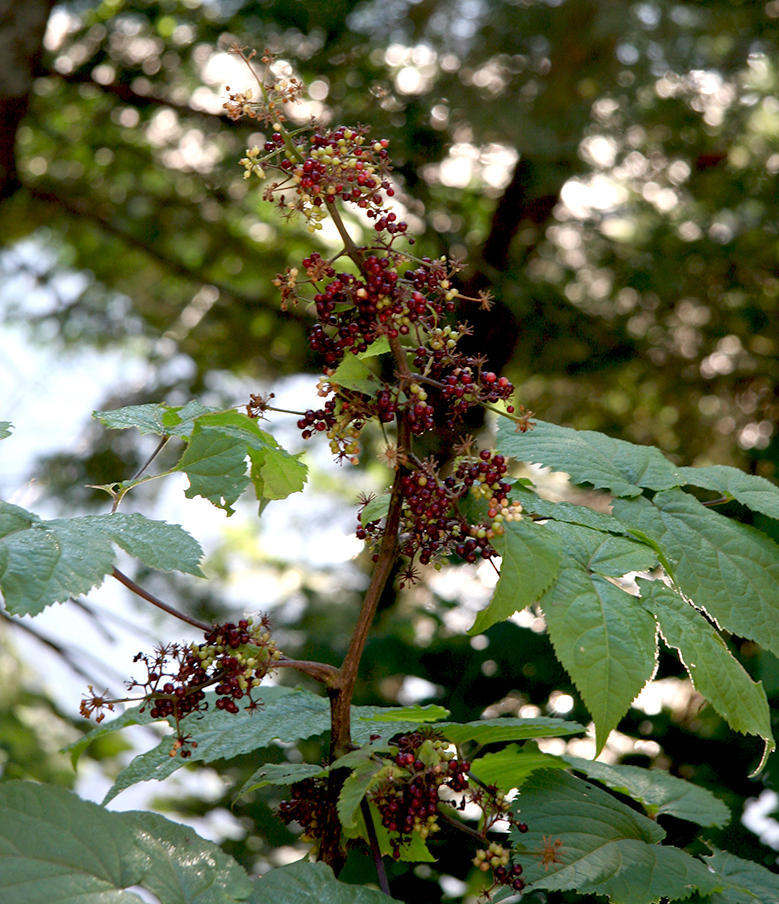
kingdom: Plantae
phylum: Tracheophyta
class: Magnoliopsida
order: Apiales
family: Araliaceae
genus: Aralia
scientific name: Aralia racemosa
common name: American-spikenard
